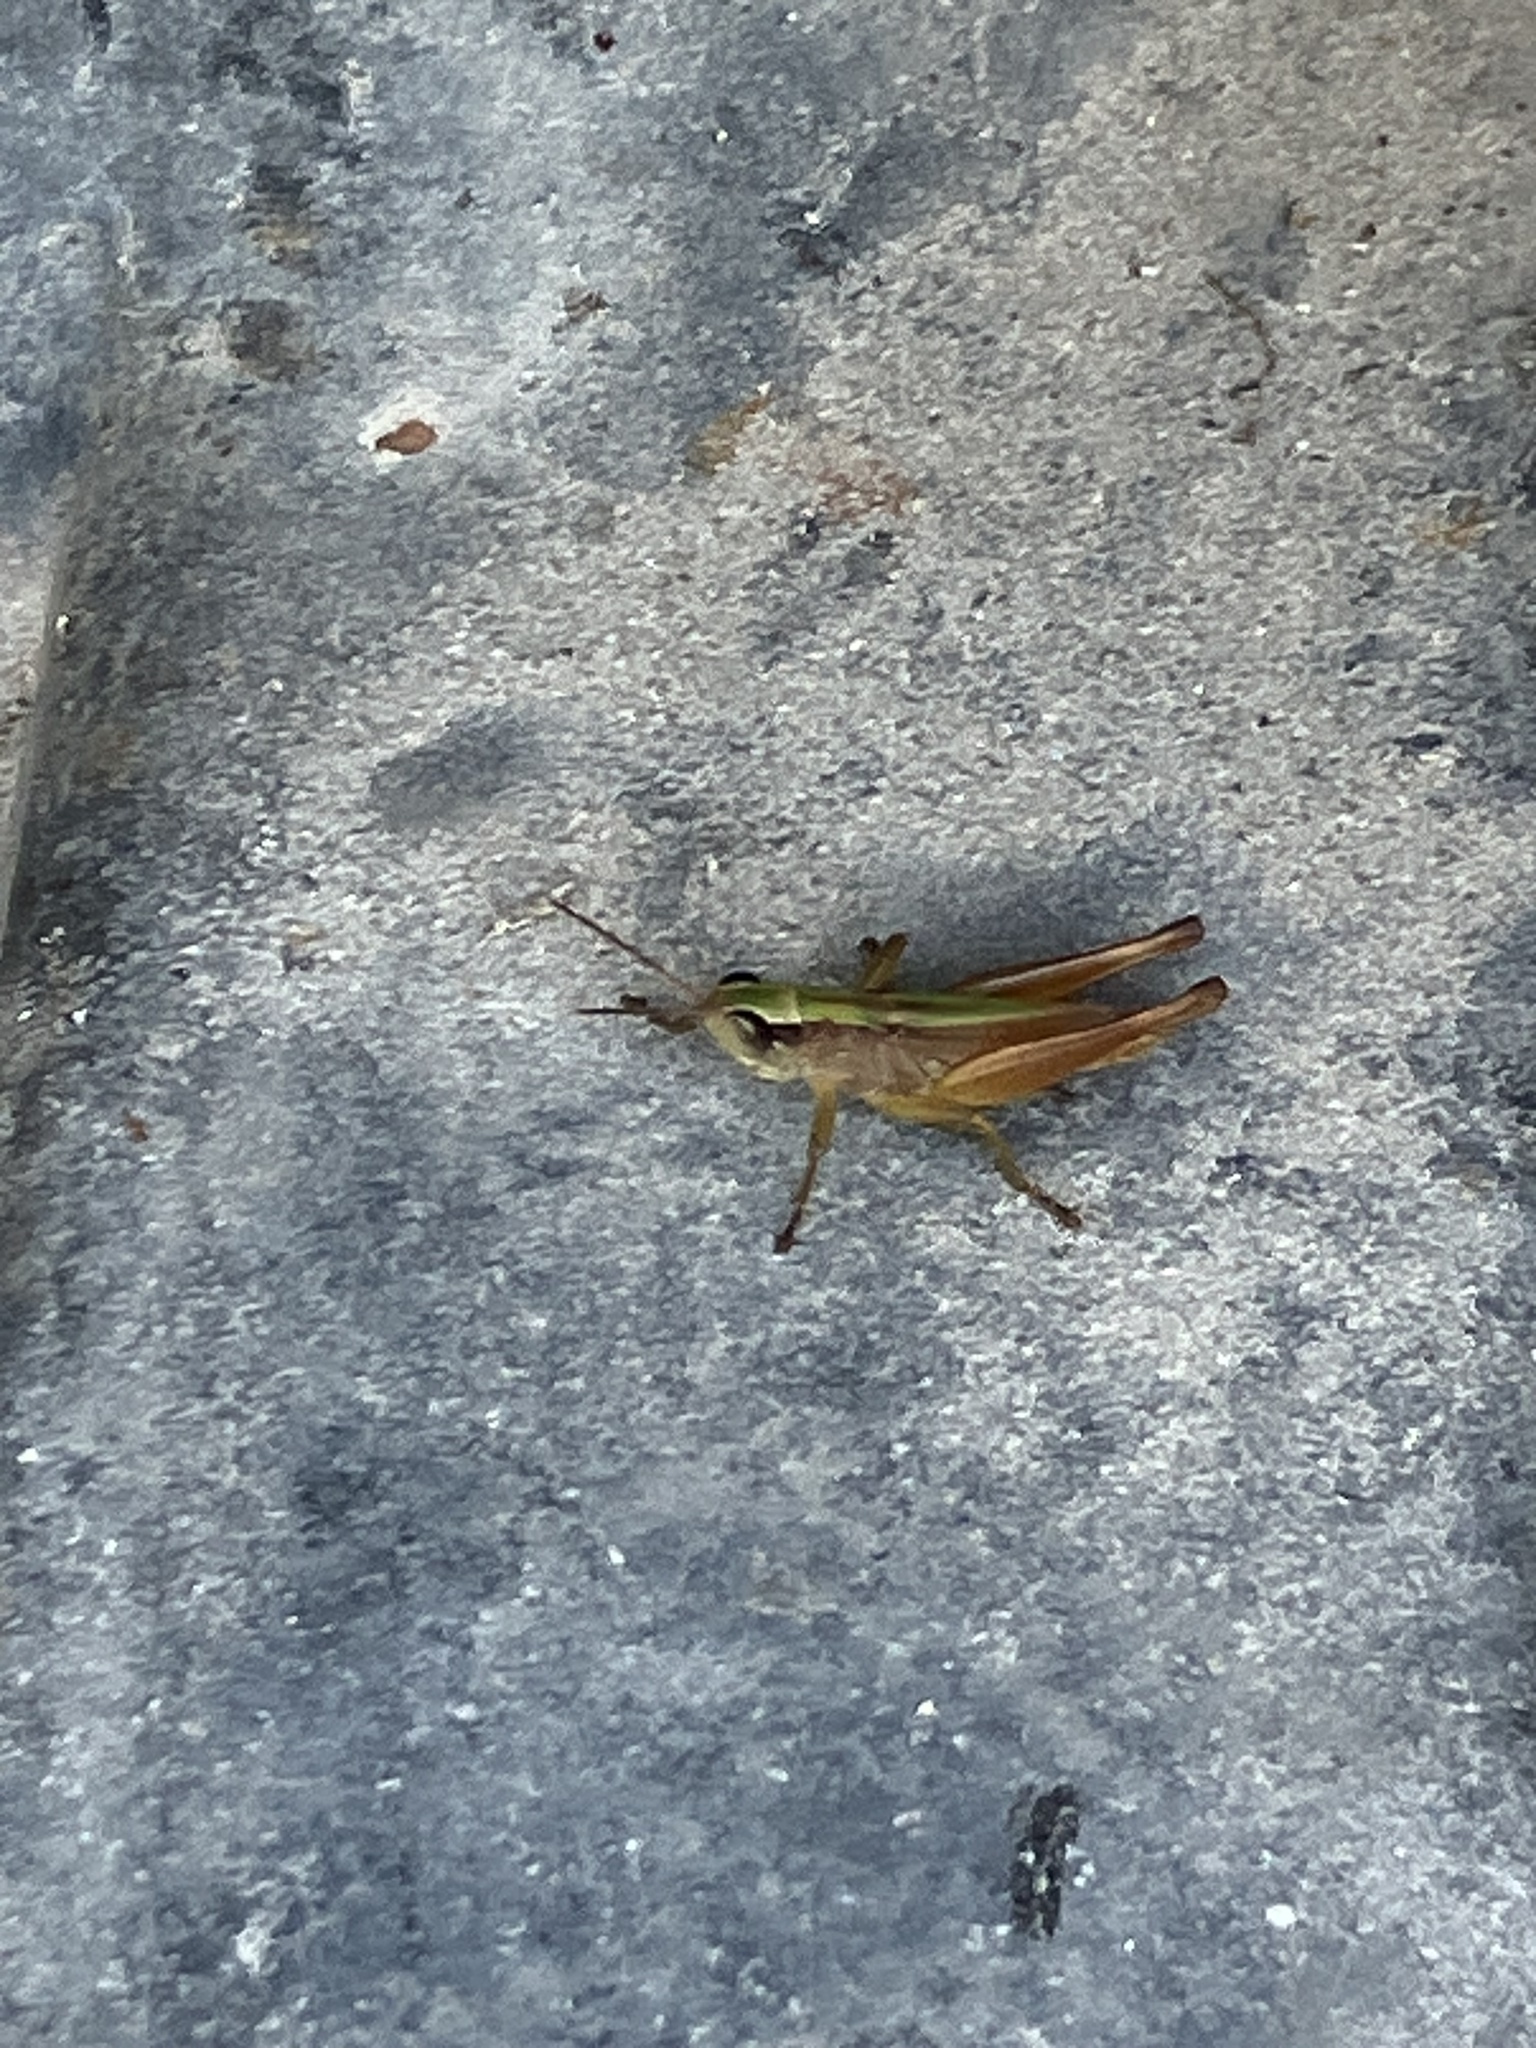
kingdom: Animalia
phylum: Arthropoda
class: Insecta
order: Orthoptera
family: Acrididae
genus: Dichromorpha
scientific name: Dichromorpha elegans
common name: Elegant grasshopper
